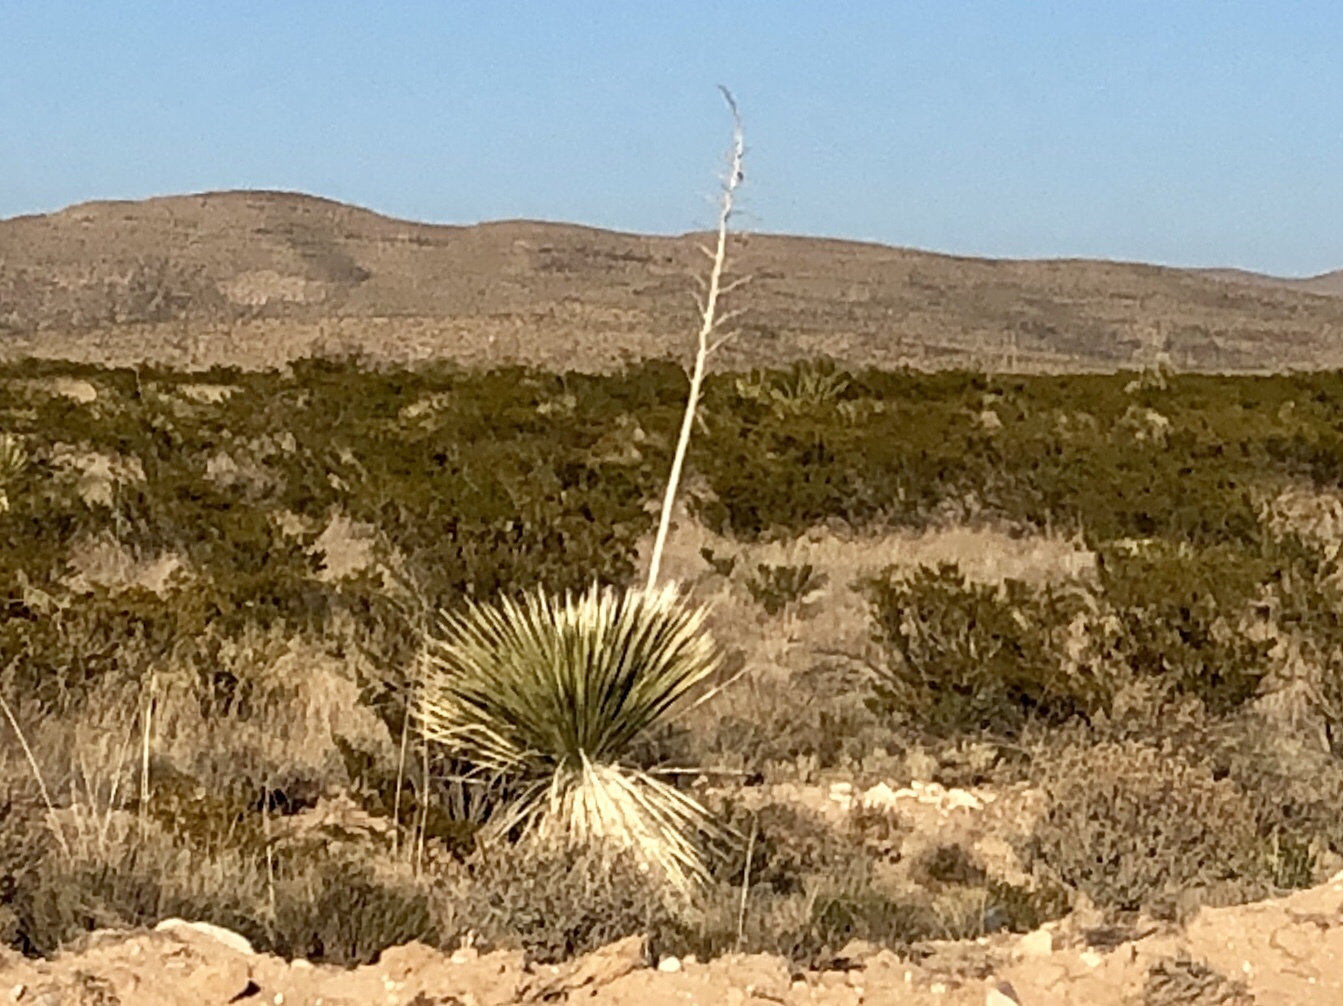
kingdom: Plantae
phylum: Tracheophyta
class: Liliopsida
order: Asparagales
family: Asparagaceae
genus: Yucca
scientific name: Yucca elata
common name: Palmella
